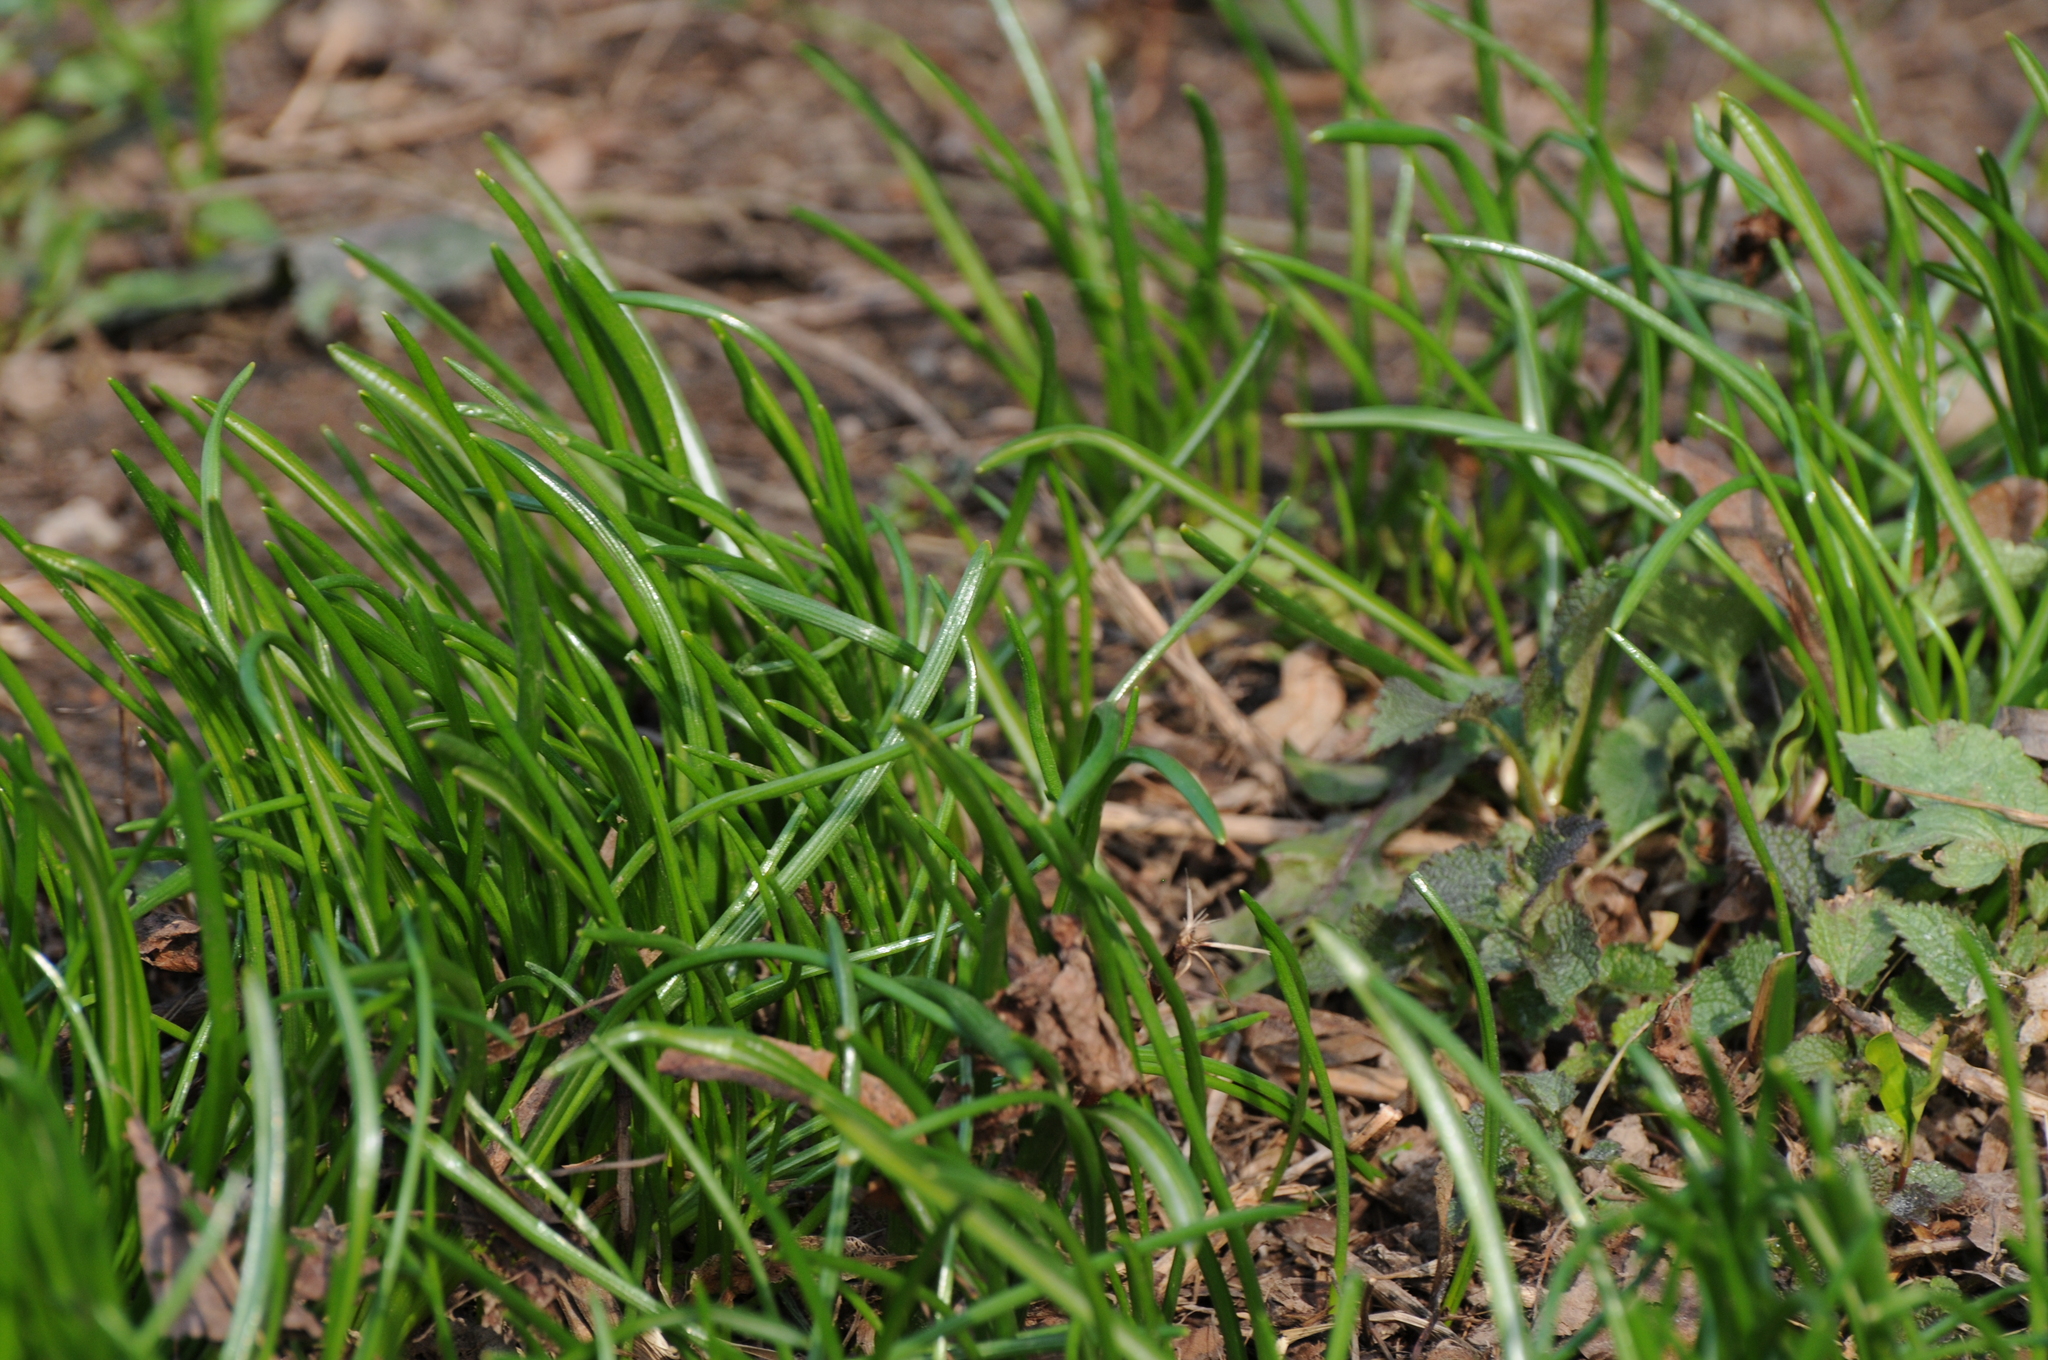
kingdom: Plantae
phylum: Tracheophyta
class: Liliopsida
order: Liliales
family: Liliaceae
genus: Gagea
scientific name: Gagea minima
